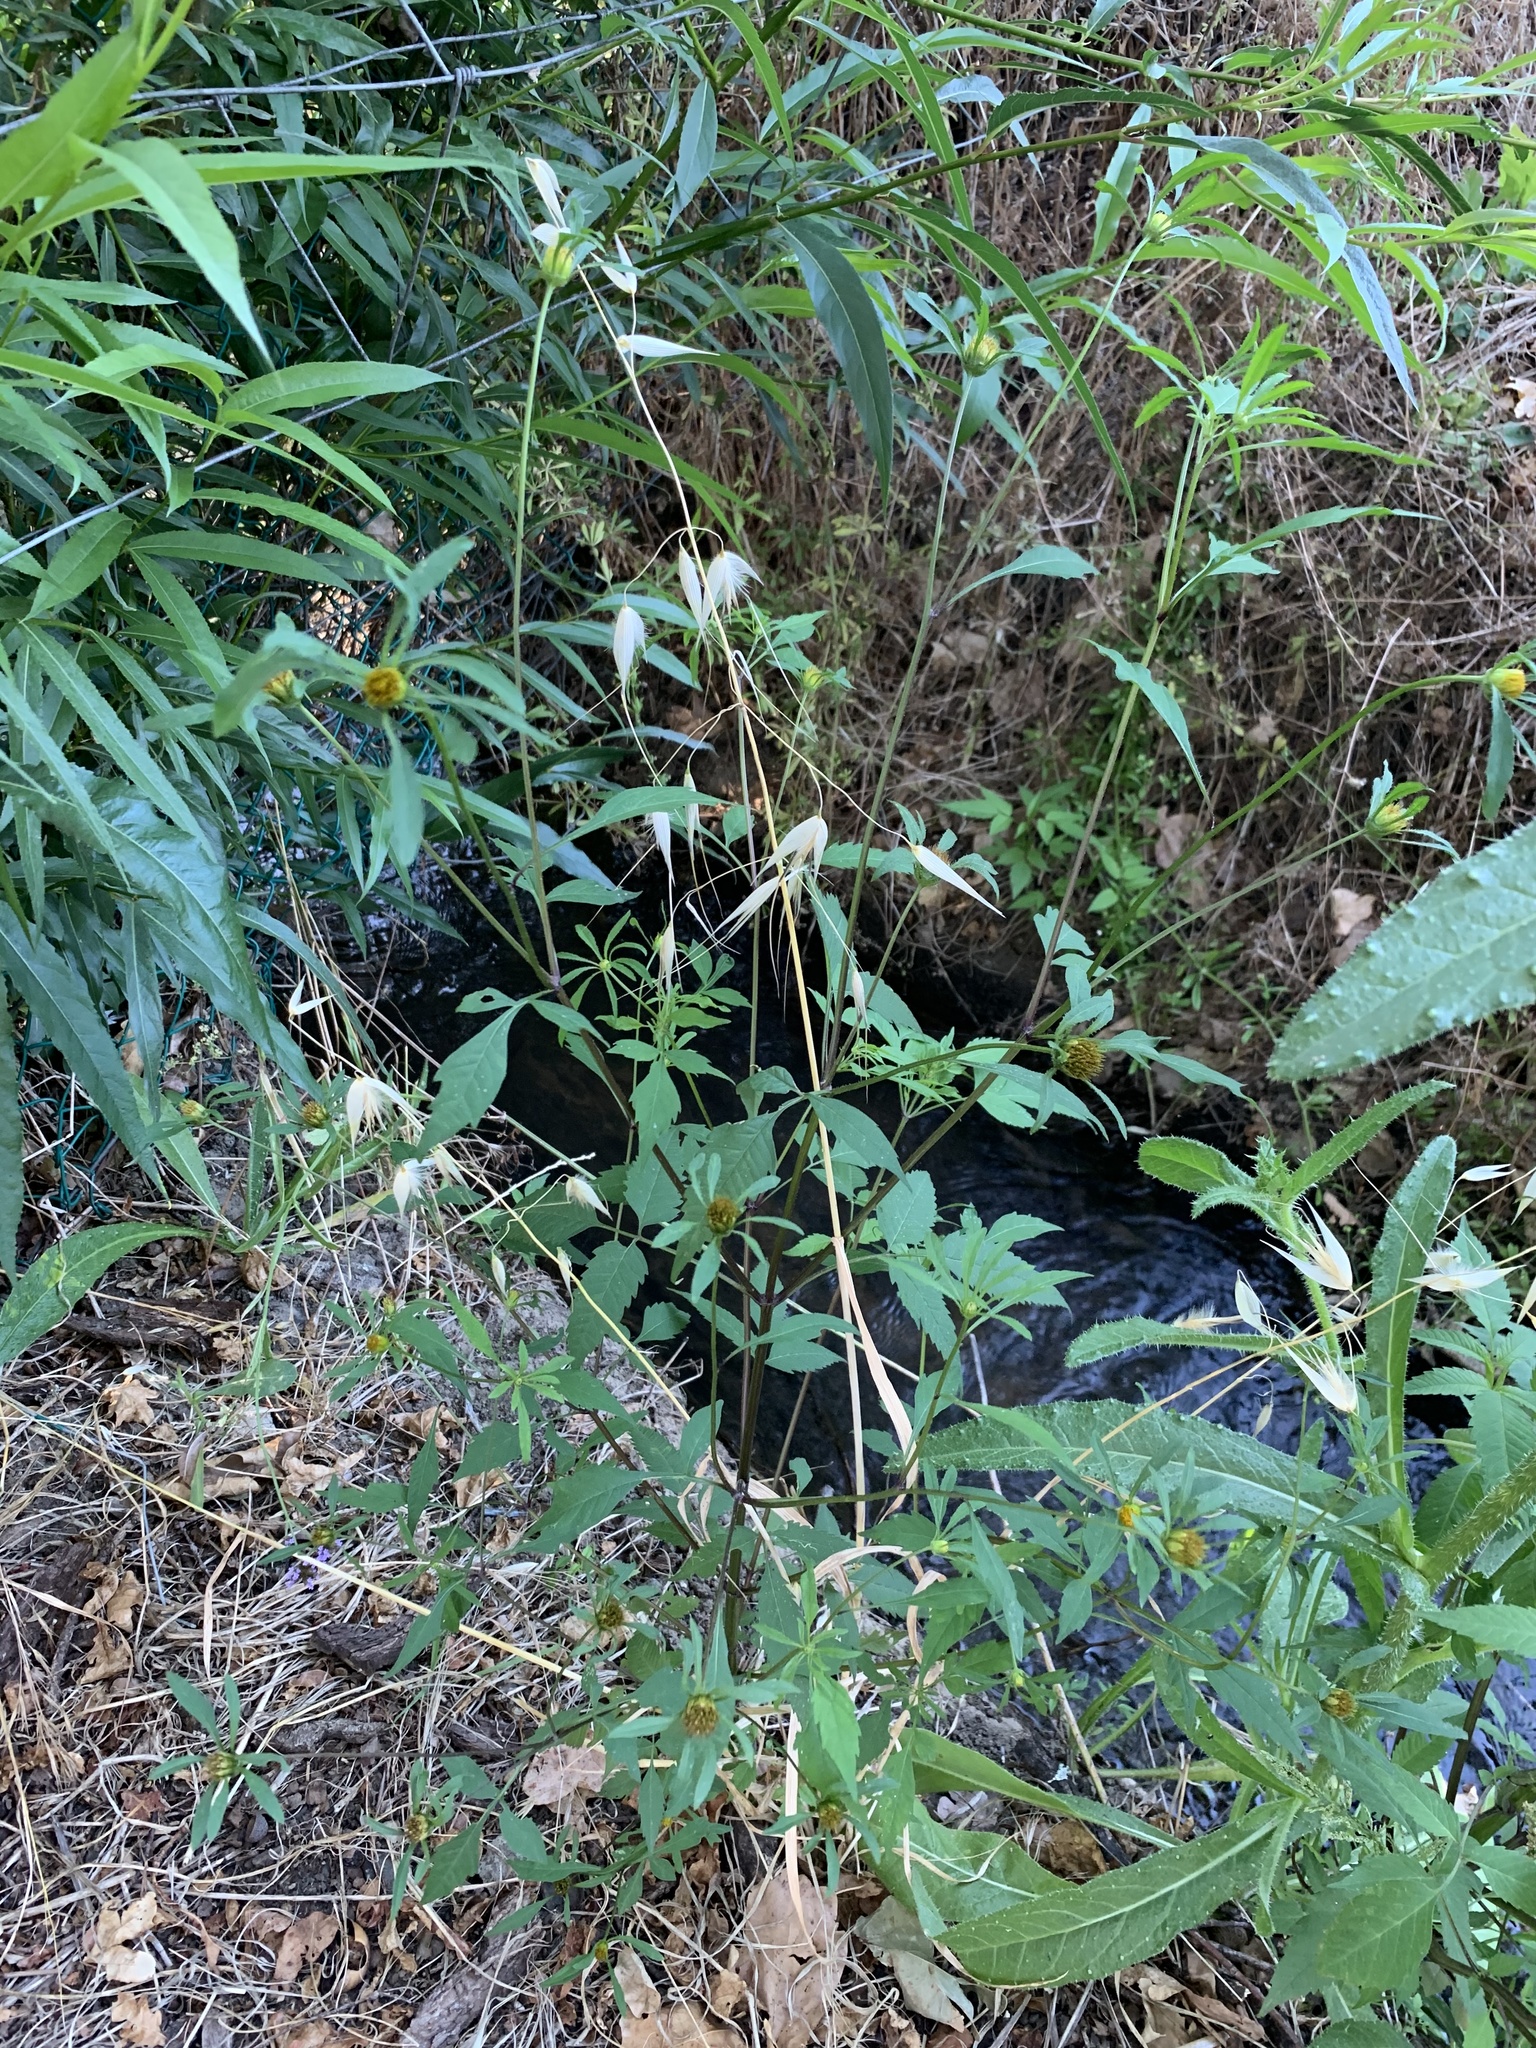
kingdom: Plantae
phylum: Tracheophyta
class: Magnoliopsida
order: Asterales
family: Asteraceae
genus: Bidens
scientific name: Bidens frondosa
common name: Beggarticks
